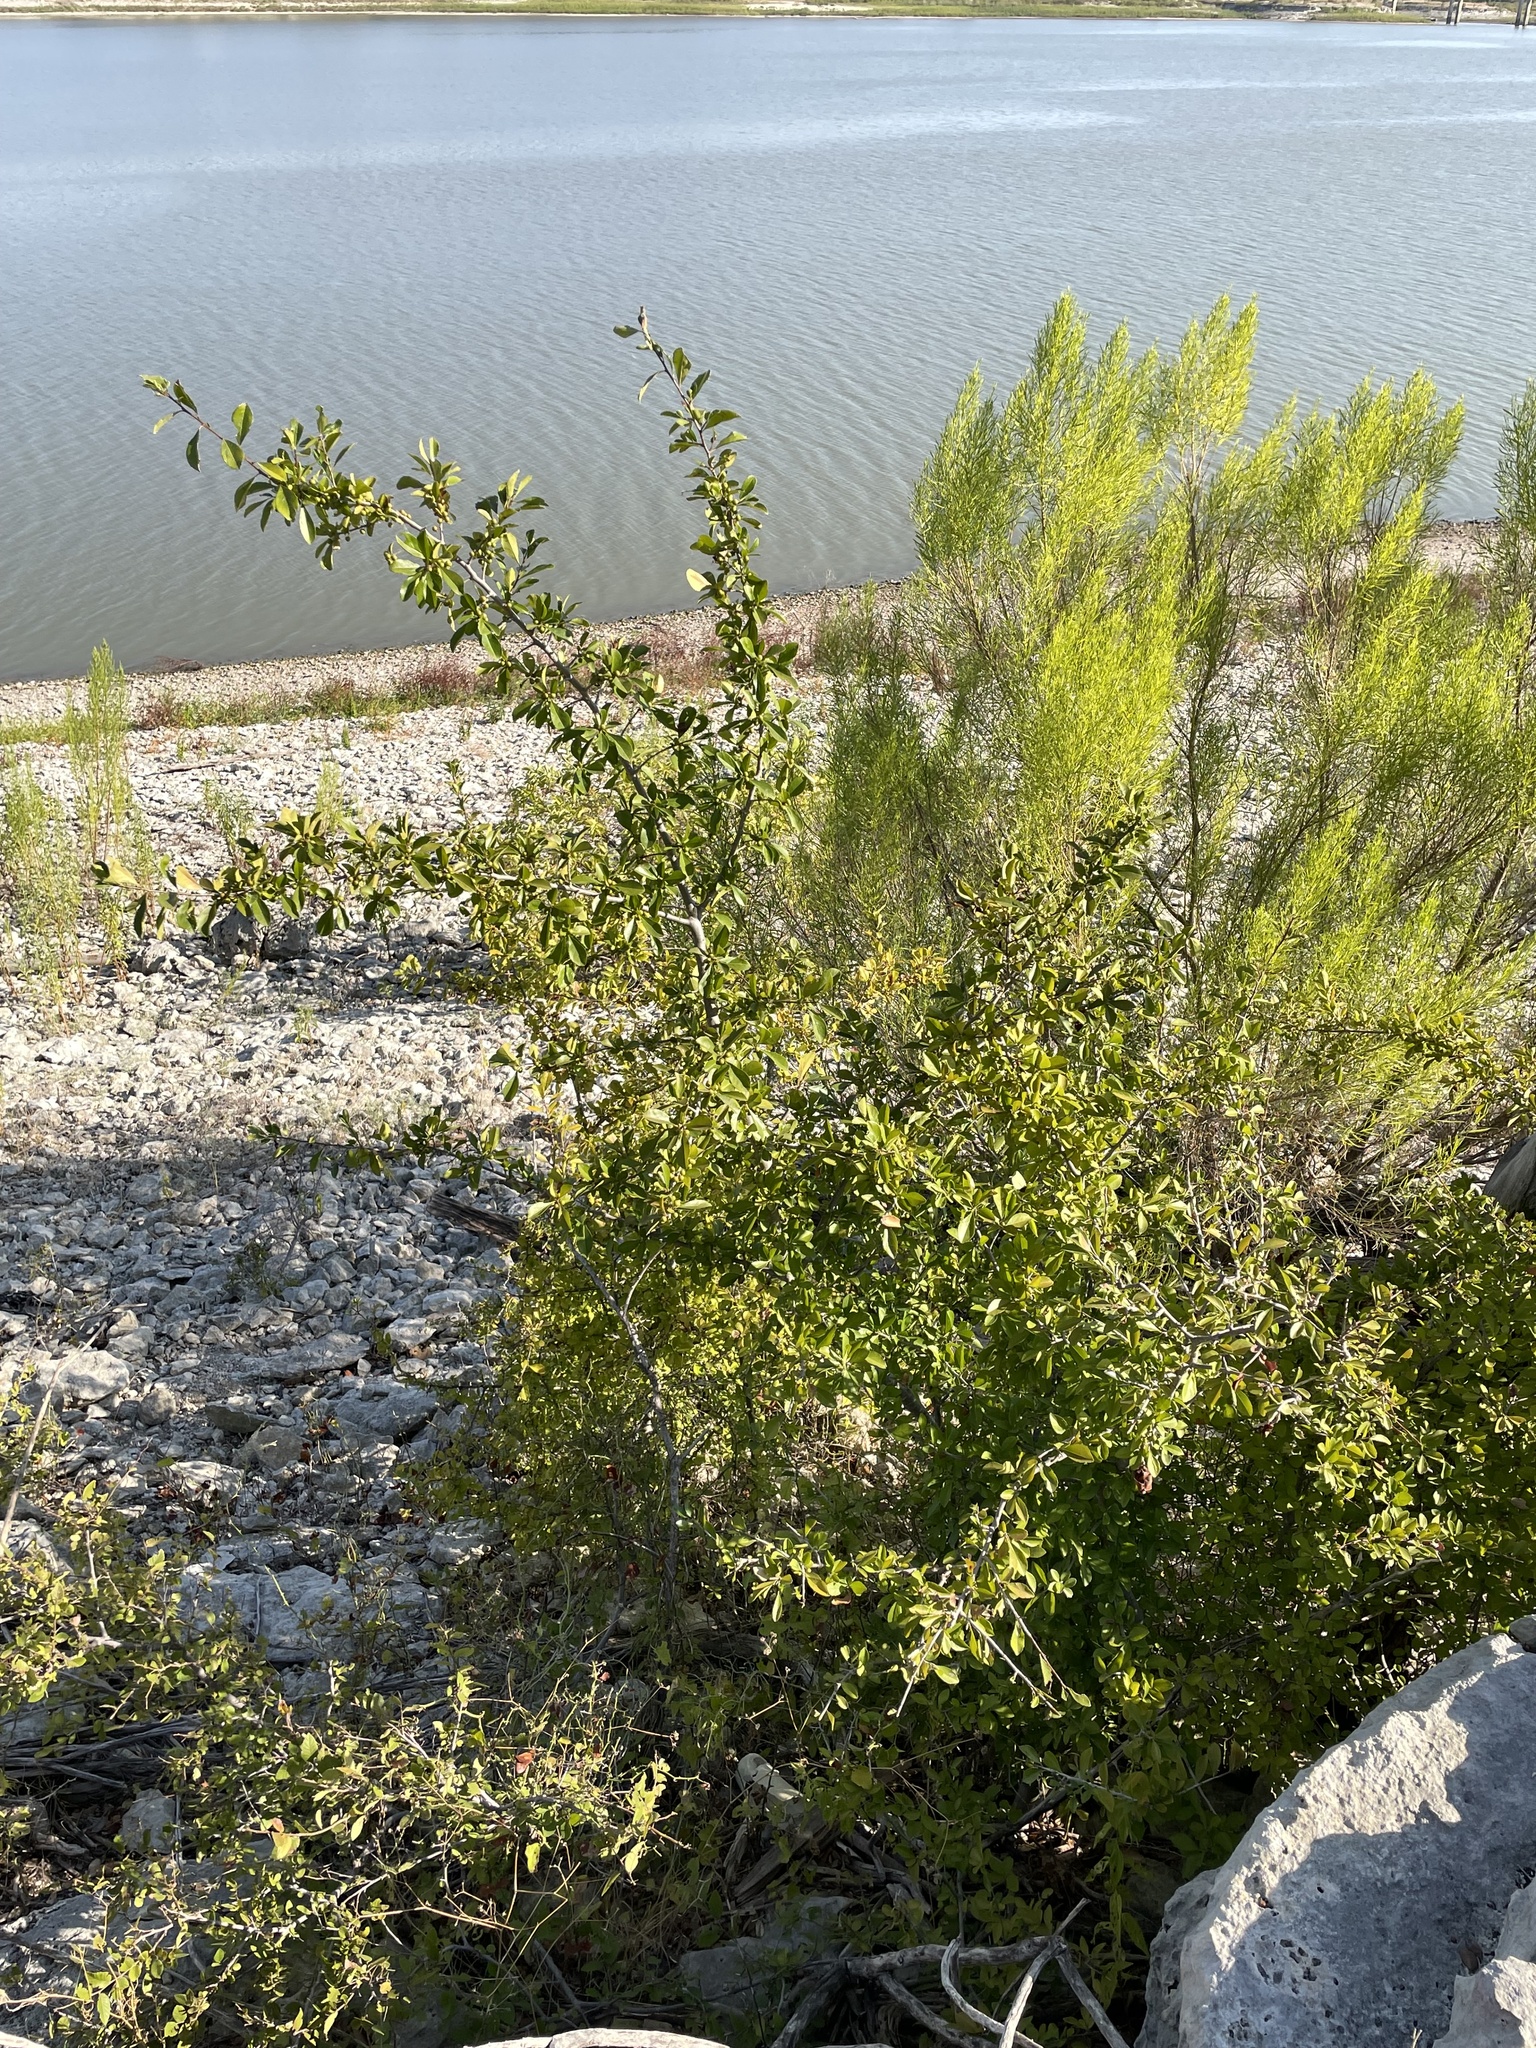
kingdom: Plantae
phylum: Tracheophyta
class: Magnoliopsida
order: Aquifoliales
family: Aquifoliaceae
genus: Ilex
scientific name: Ilex decidua
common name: Possum-haw
